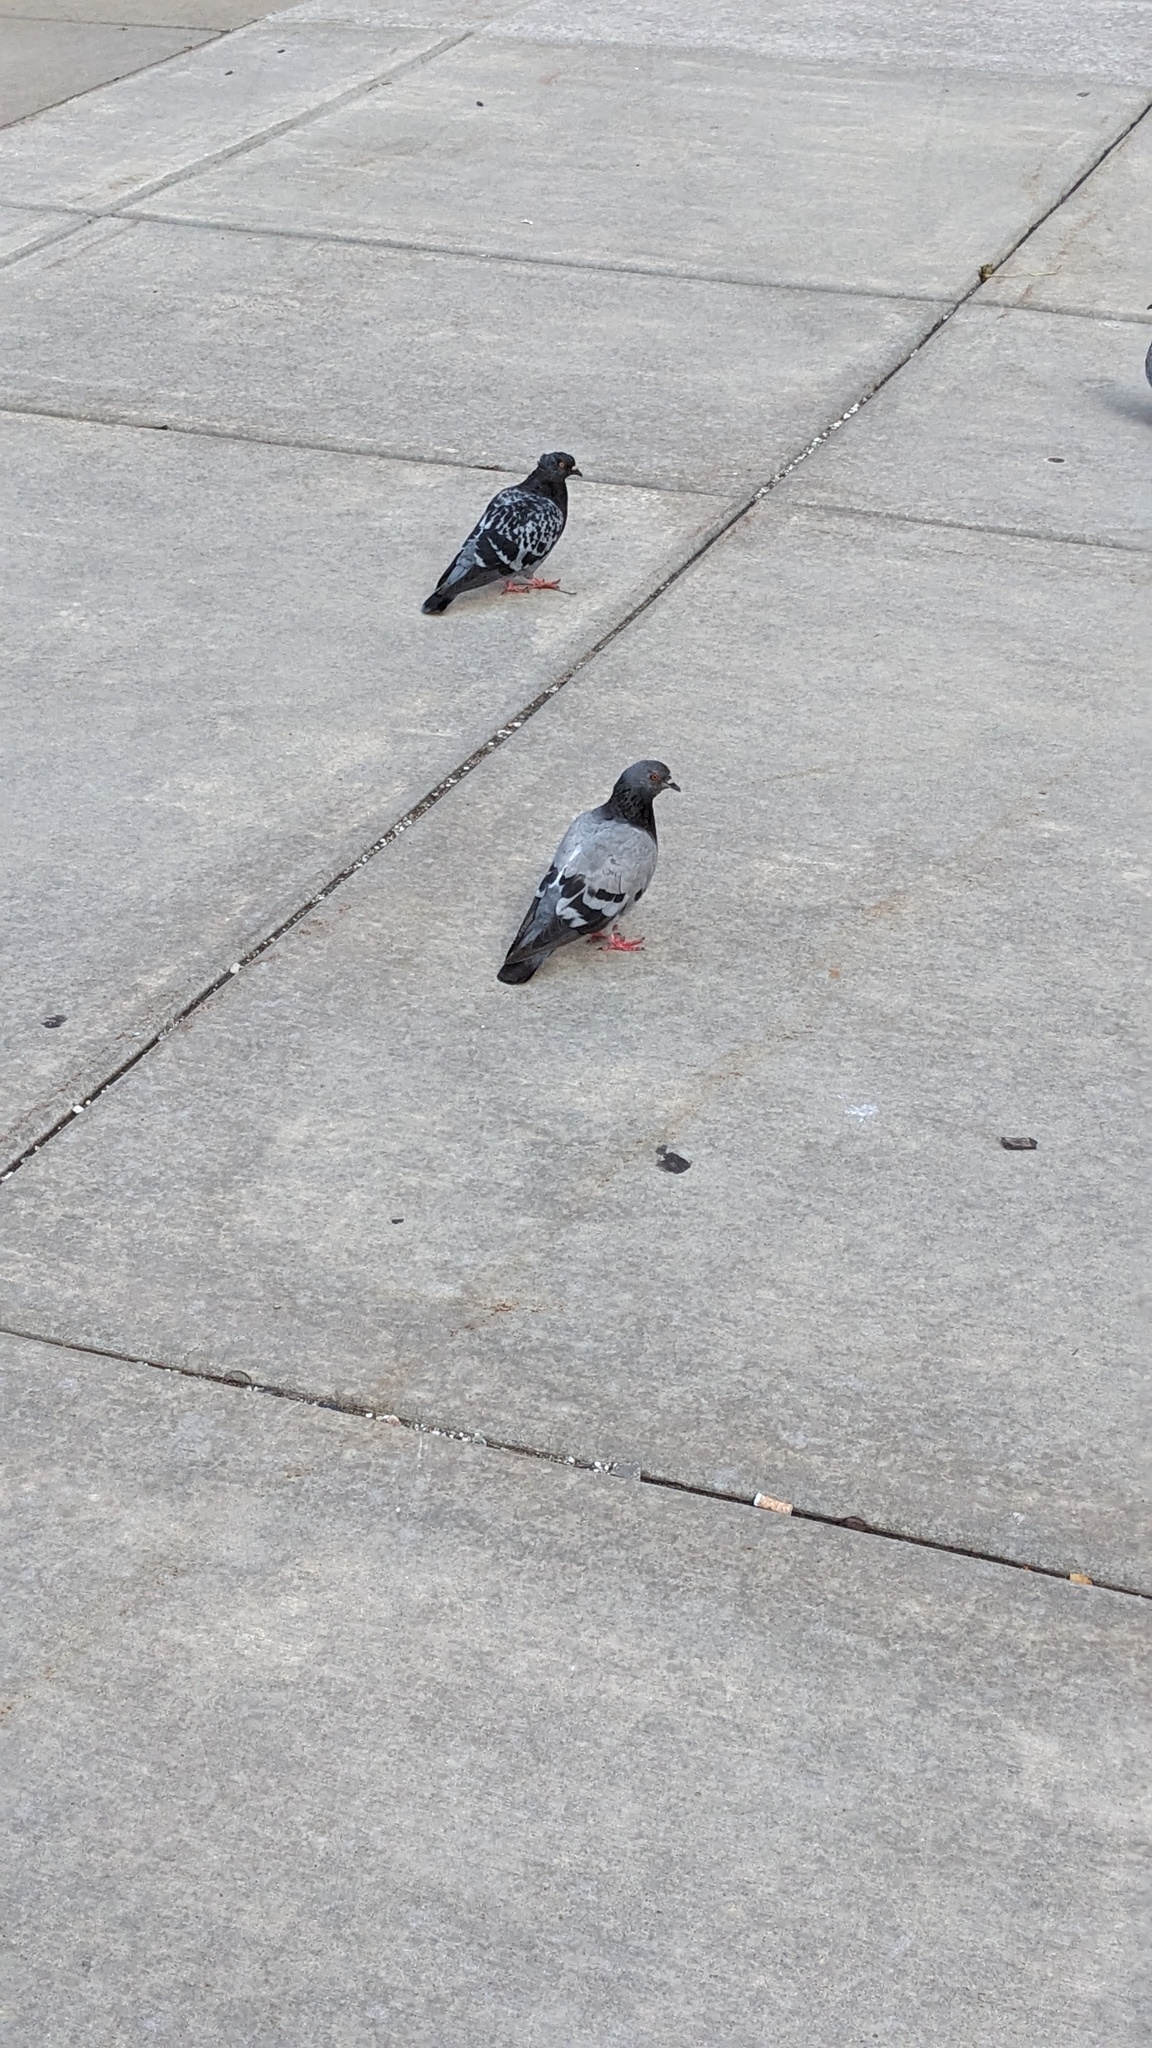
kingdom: Animalia
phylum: Chordata
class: Aves
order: Columbiformes
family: Columbidae
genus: Columba
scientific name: Columba livia
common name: Rock pigeon
